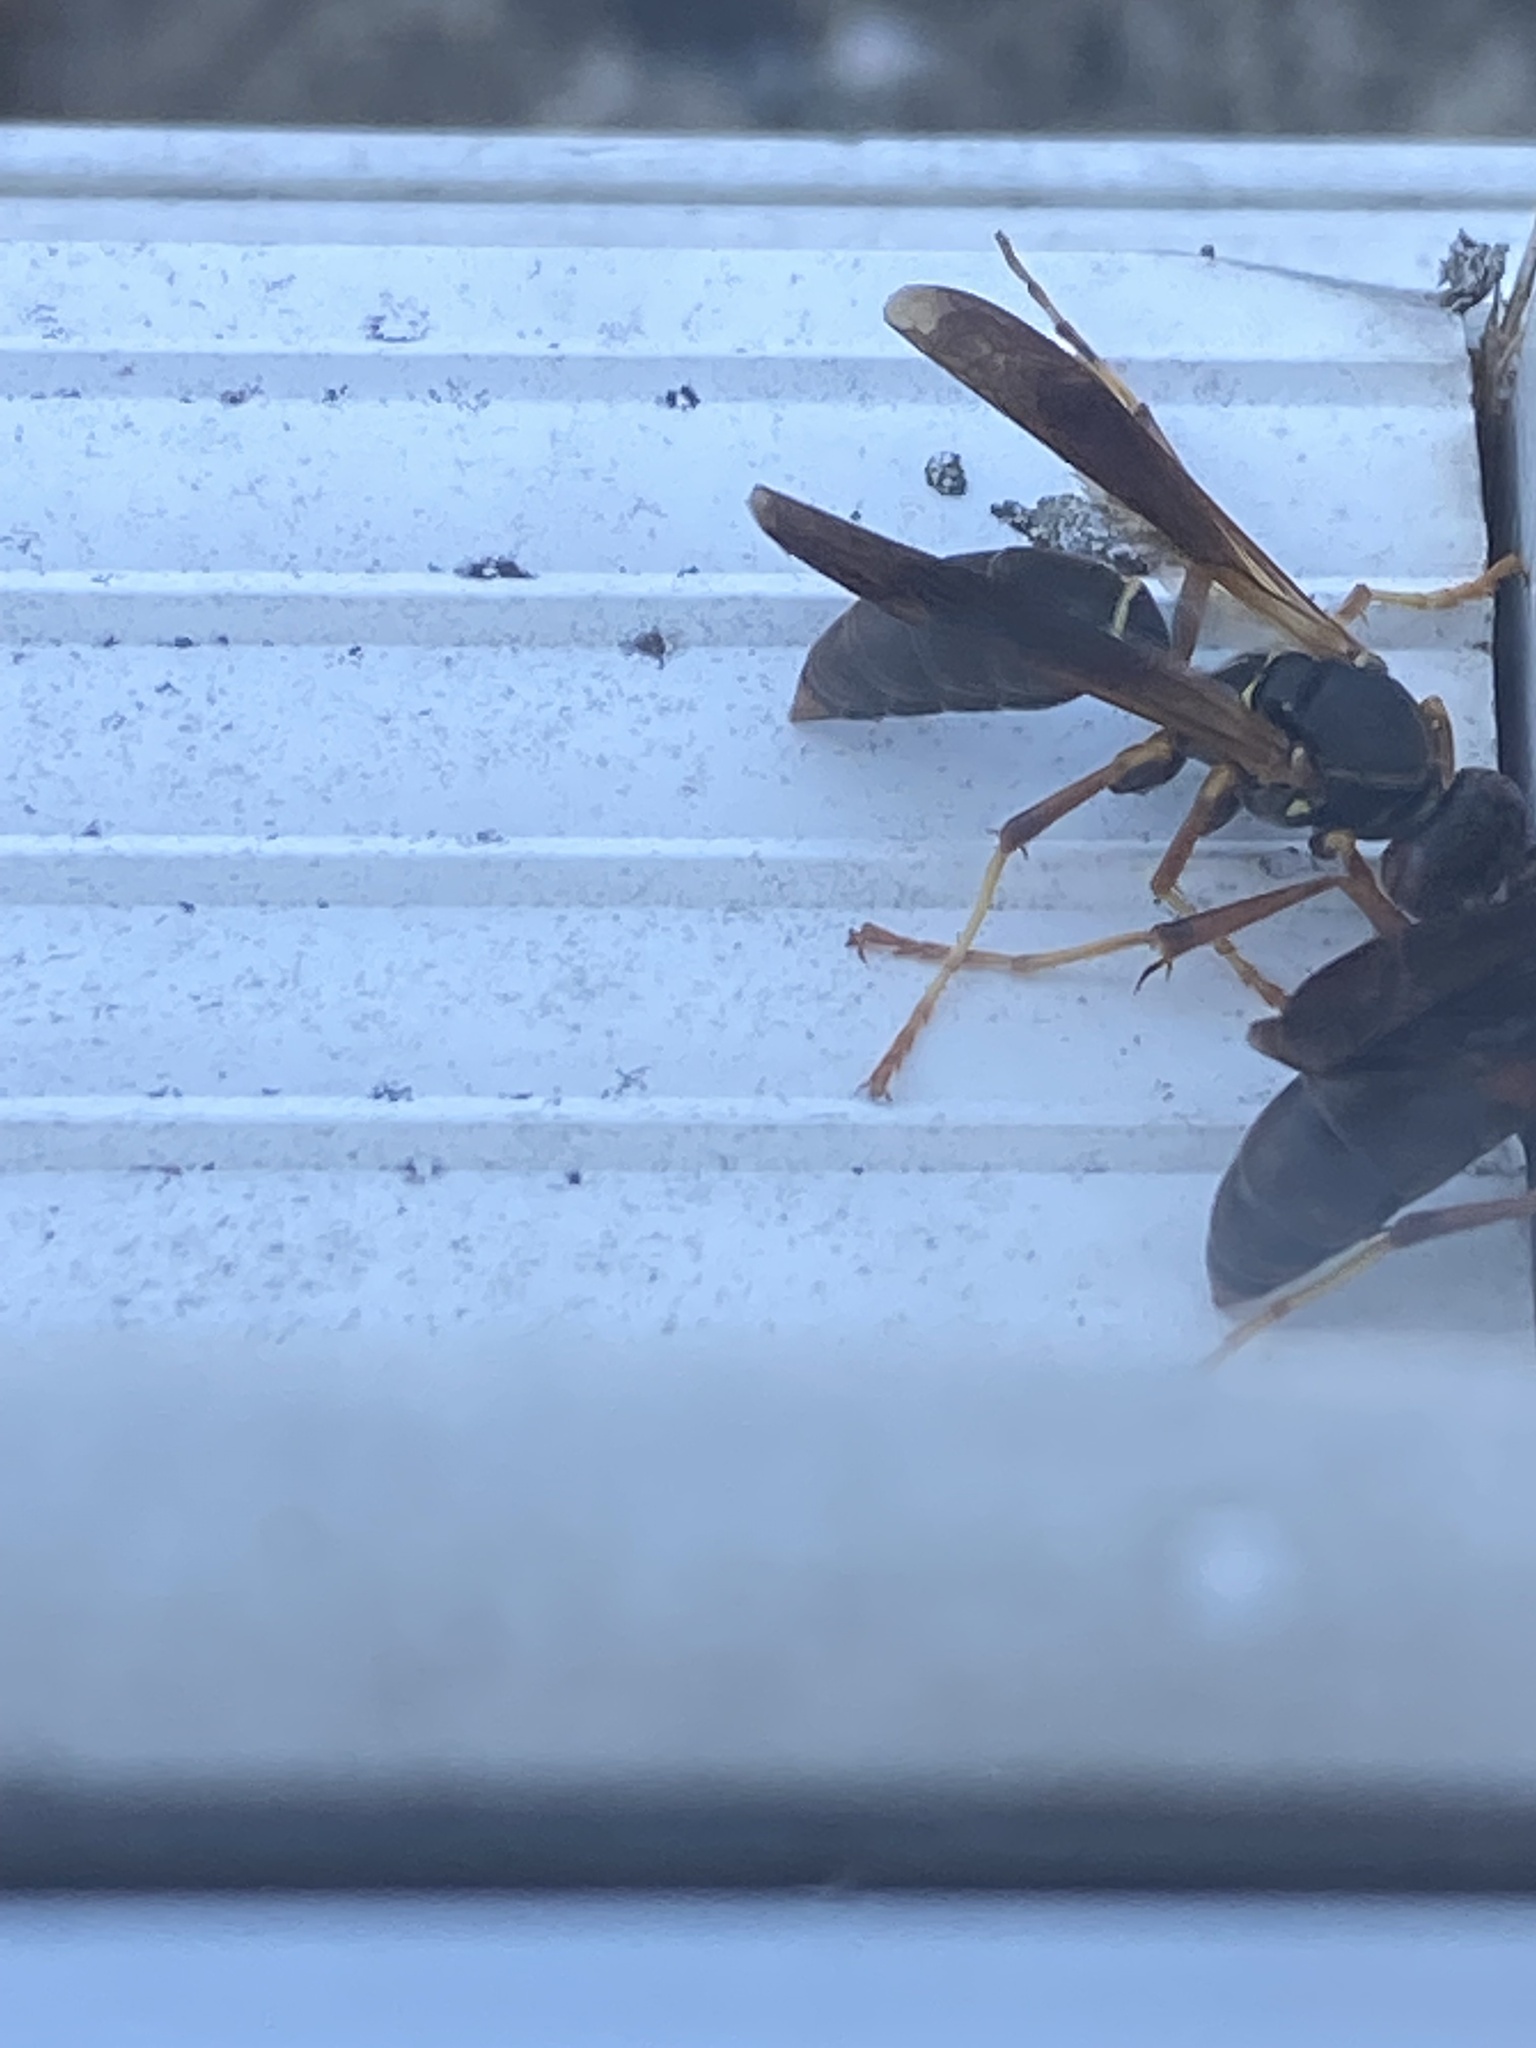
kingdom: Animalia
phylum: Arthropoda
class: Insecta
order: Hymenoptera
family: Eumenidae
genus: Polistes
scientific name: Polistes fuscatus
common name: Dark paper wasp
